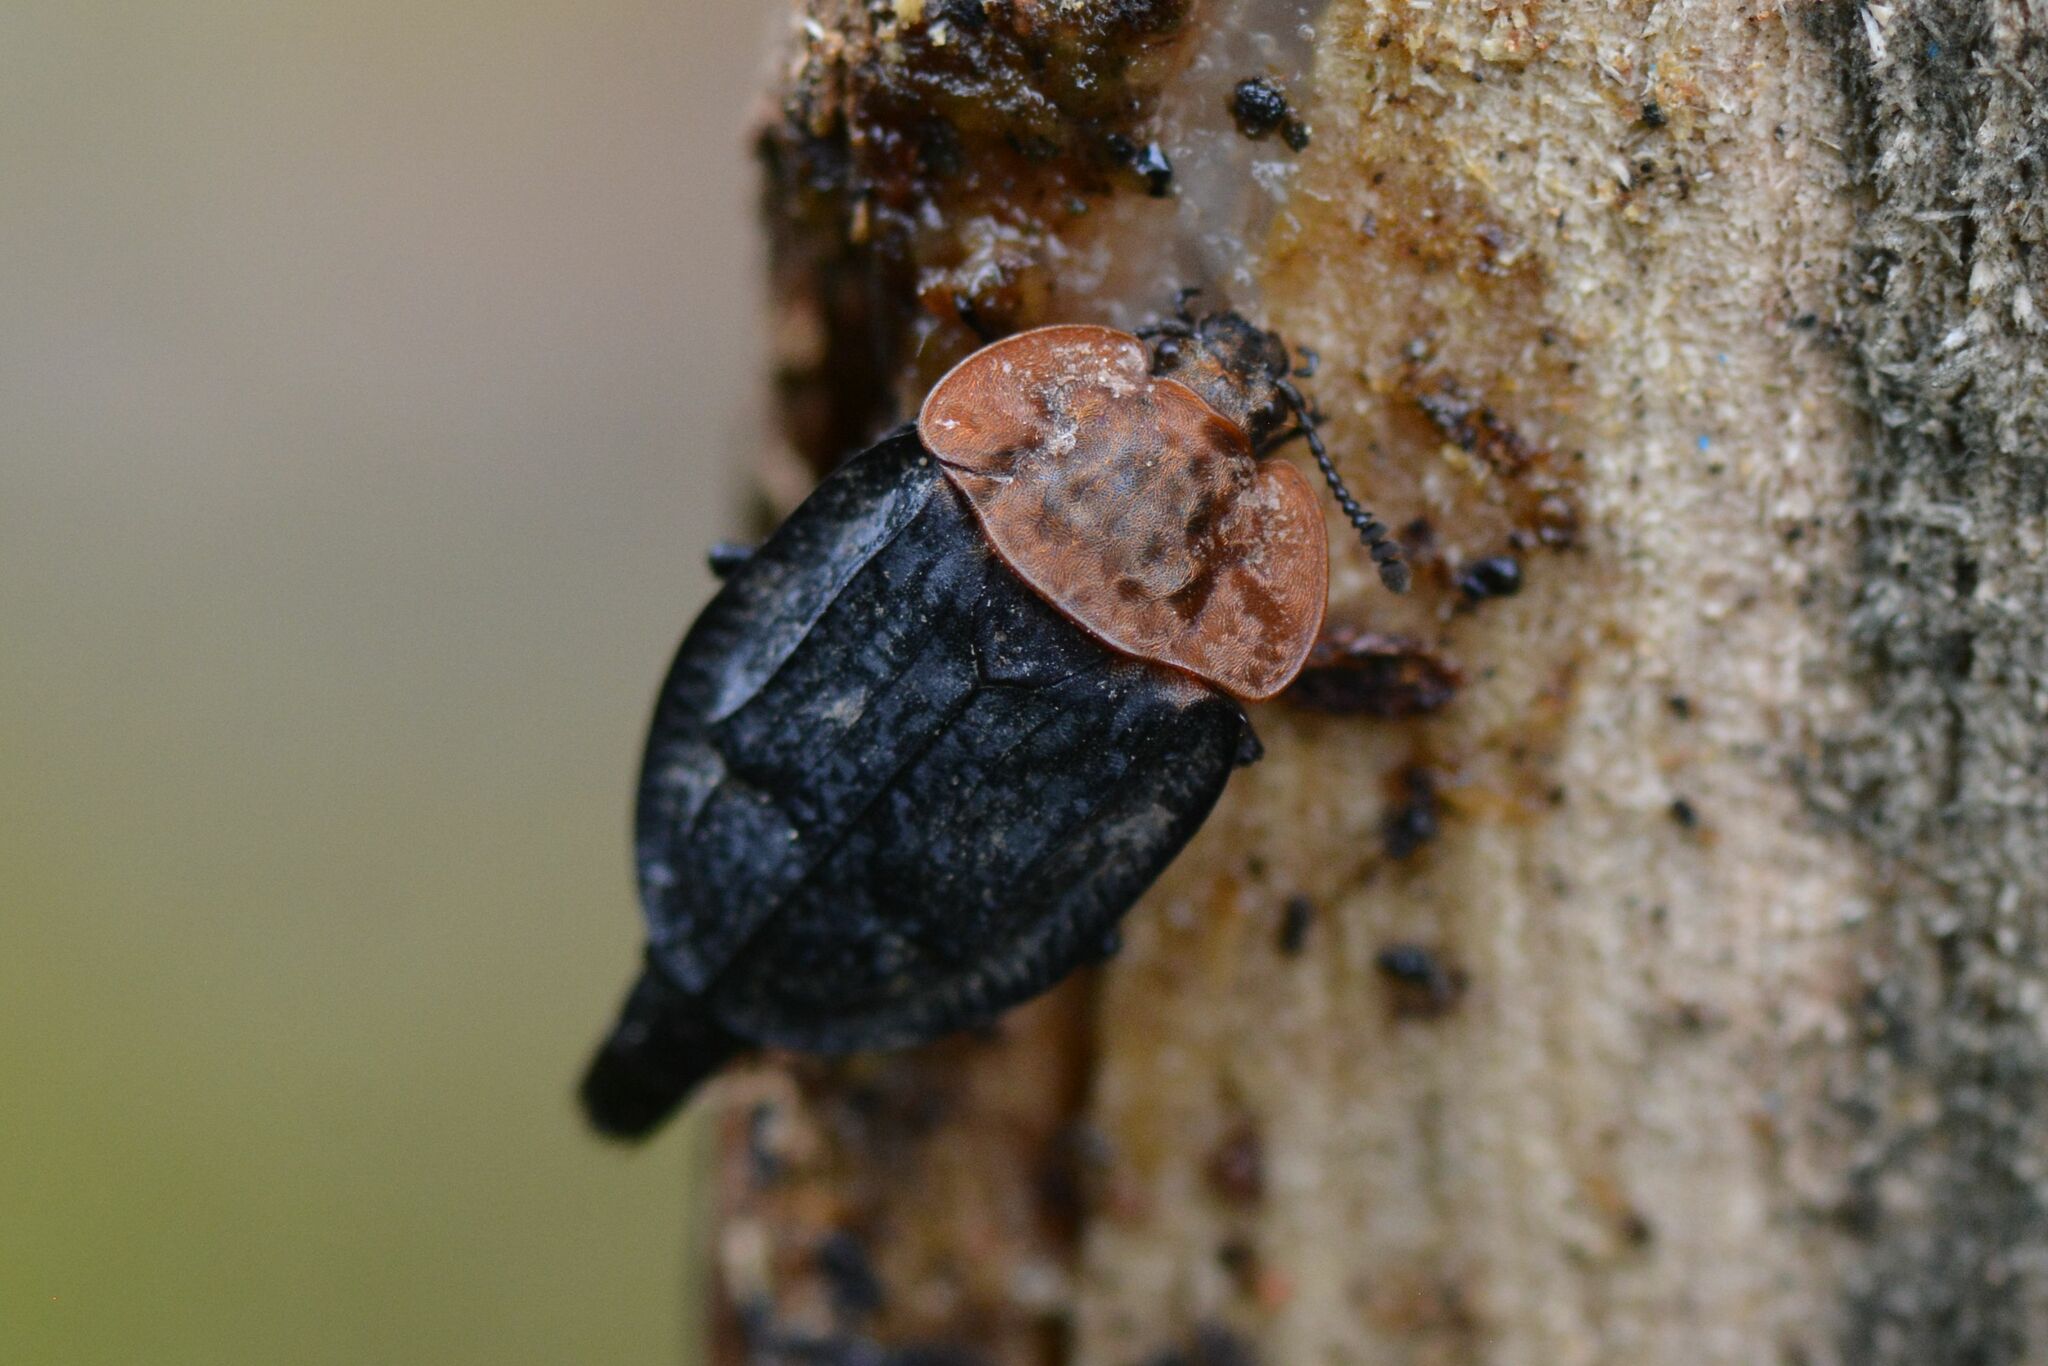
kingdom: Animalia
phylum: Arthropoda
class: Insecta
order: Coleoptera
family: Staphylinidae
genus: Oiceoptoma
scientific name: Oiceoptoma thoracicum
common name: Red-breasted carrion beetle
